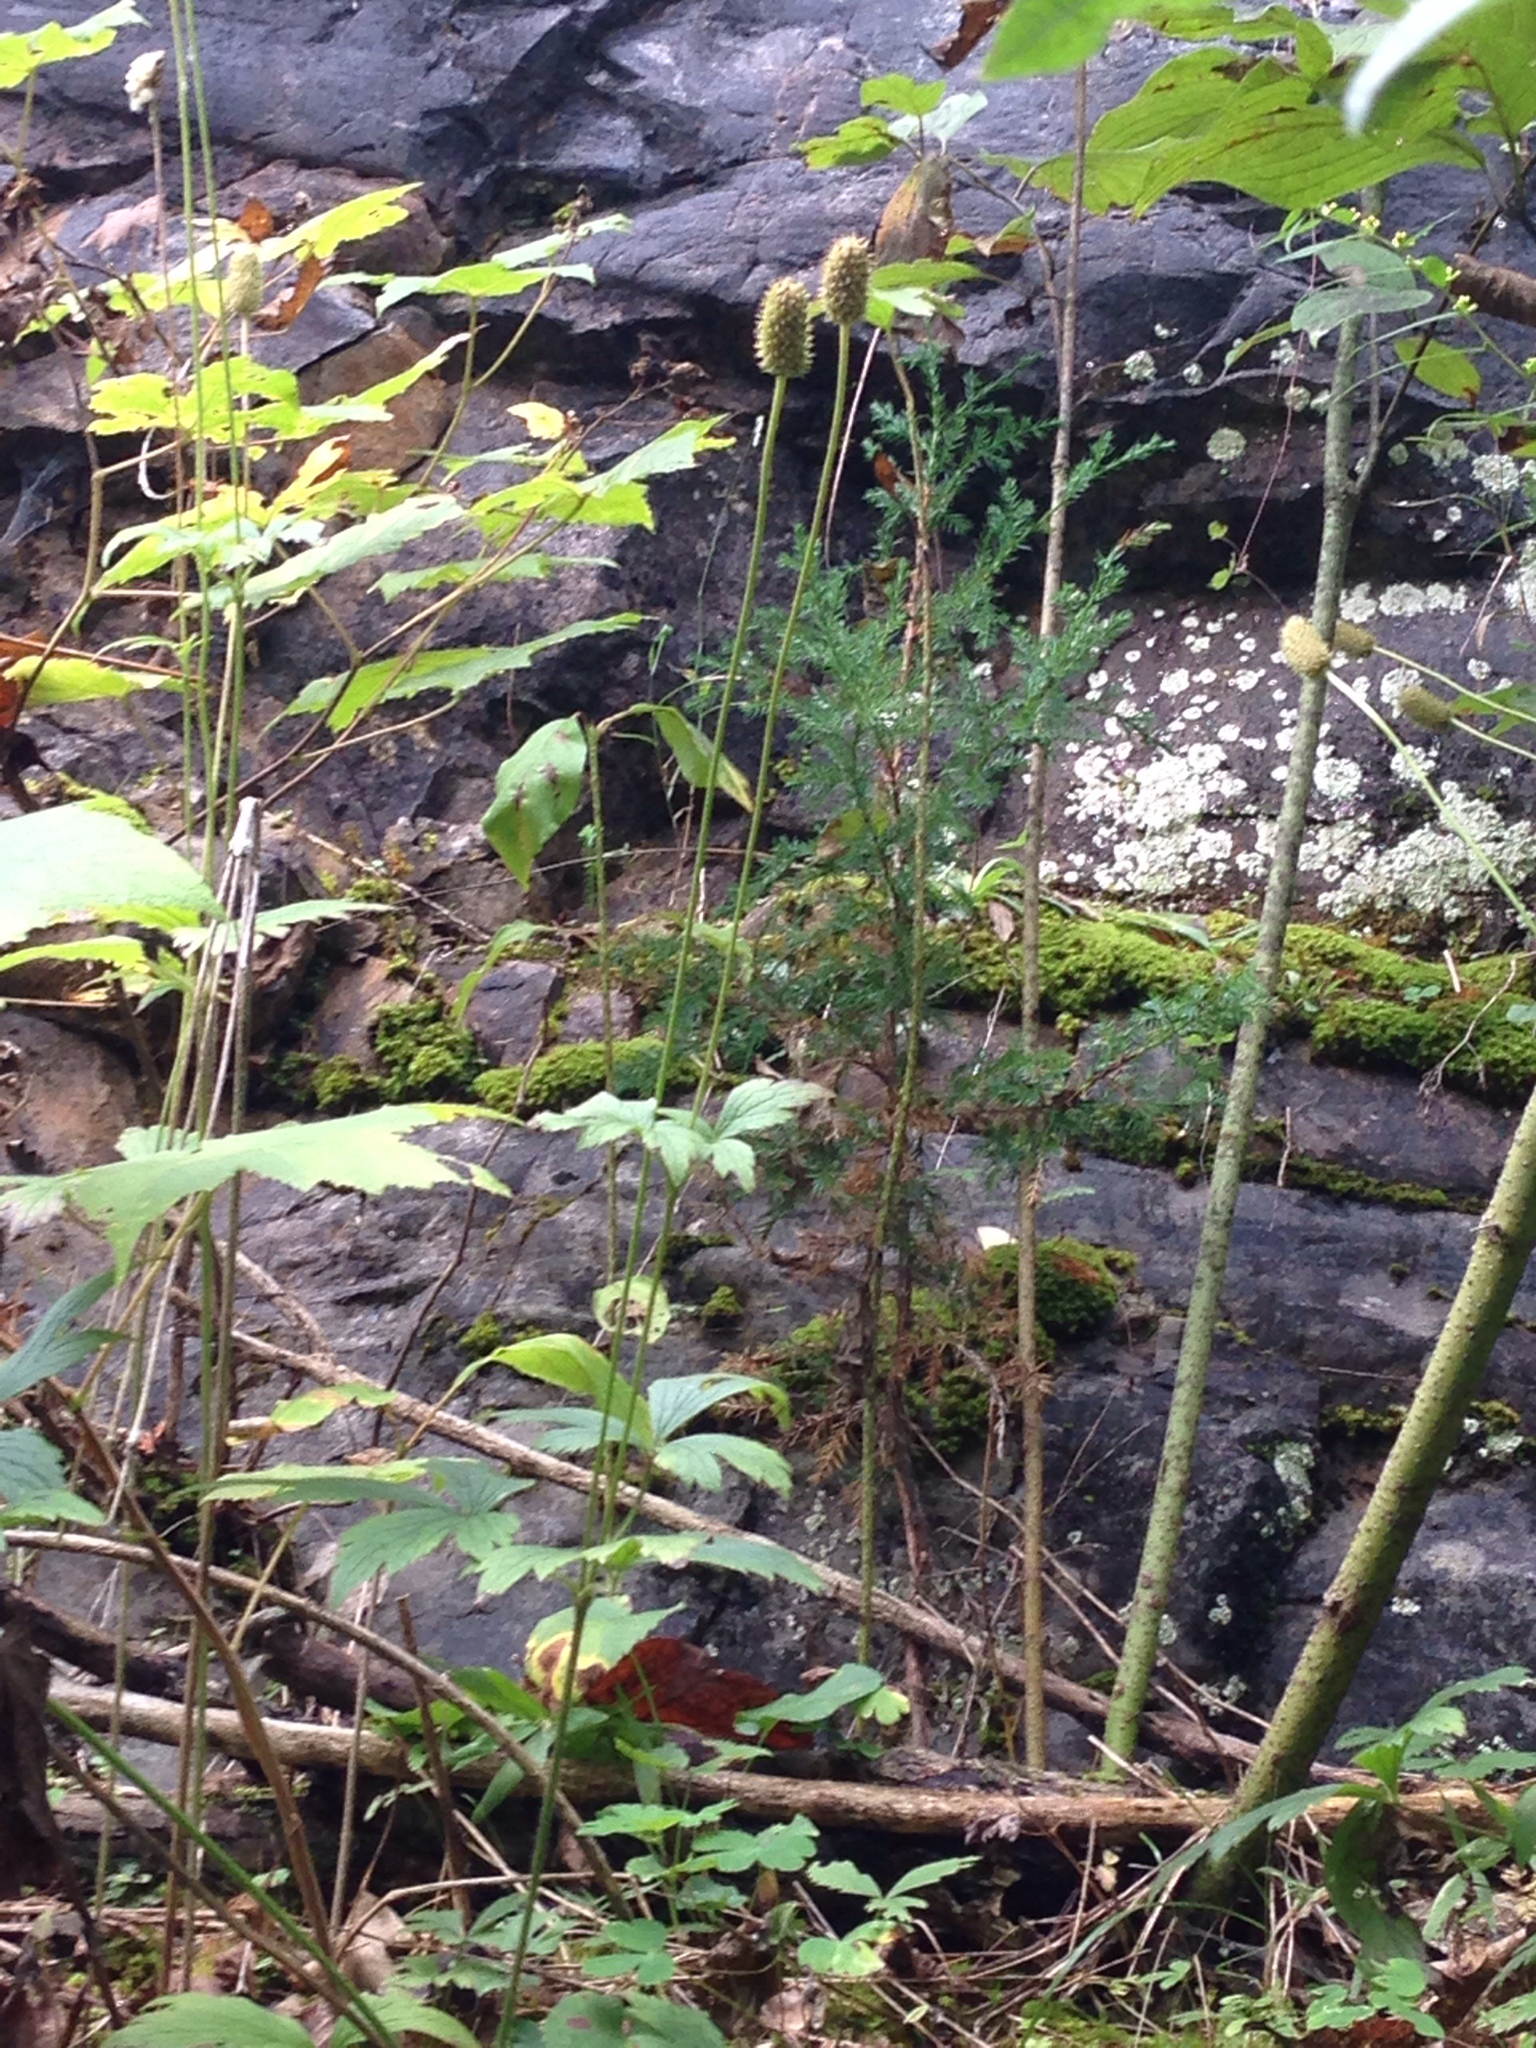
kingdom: Plantae
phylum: Tracheophyta
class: Magnoliopsida
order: Ranunculales
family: Ranunculaceae
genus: Anemone
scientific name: Anemone virginiana
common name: Tall anemone
